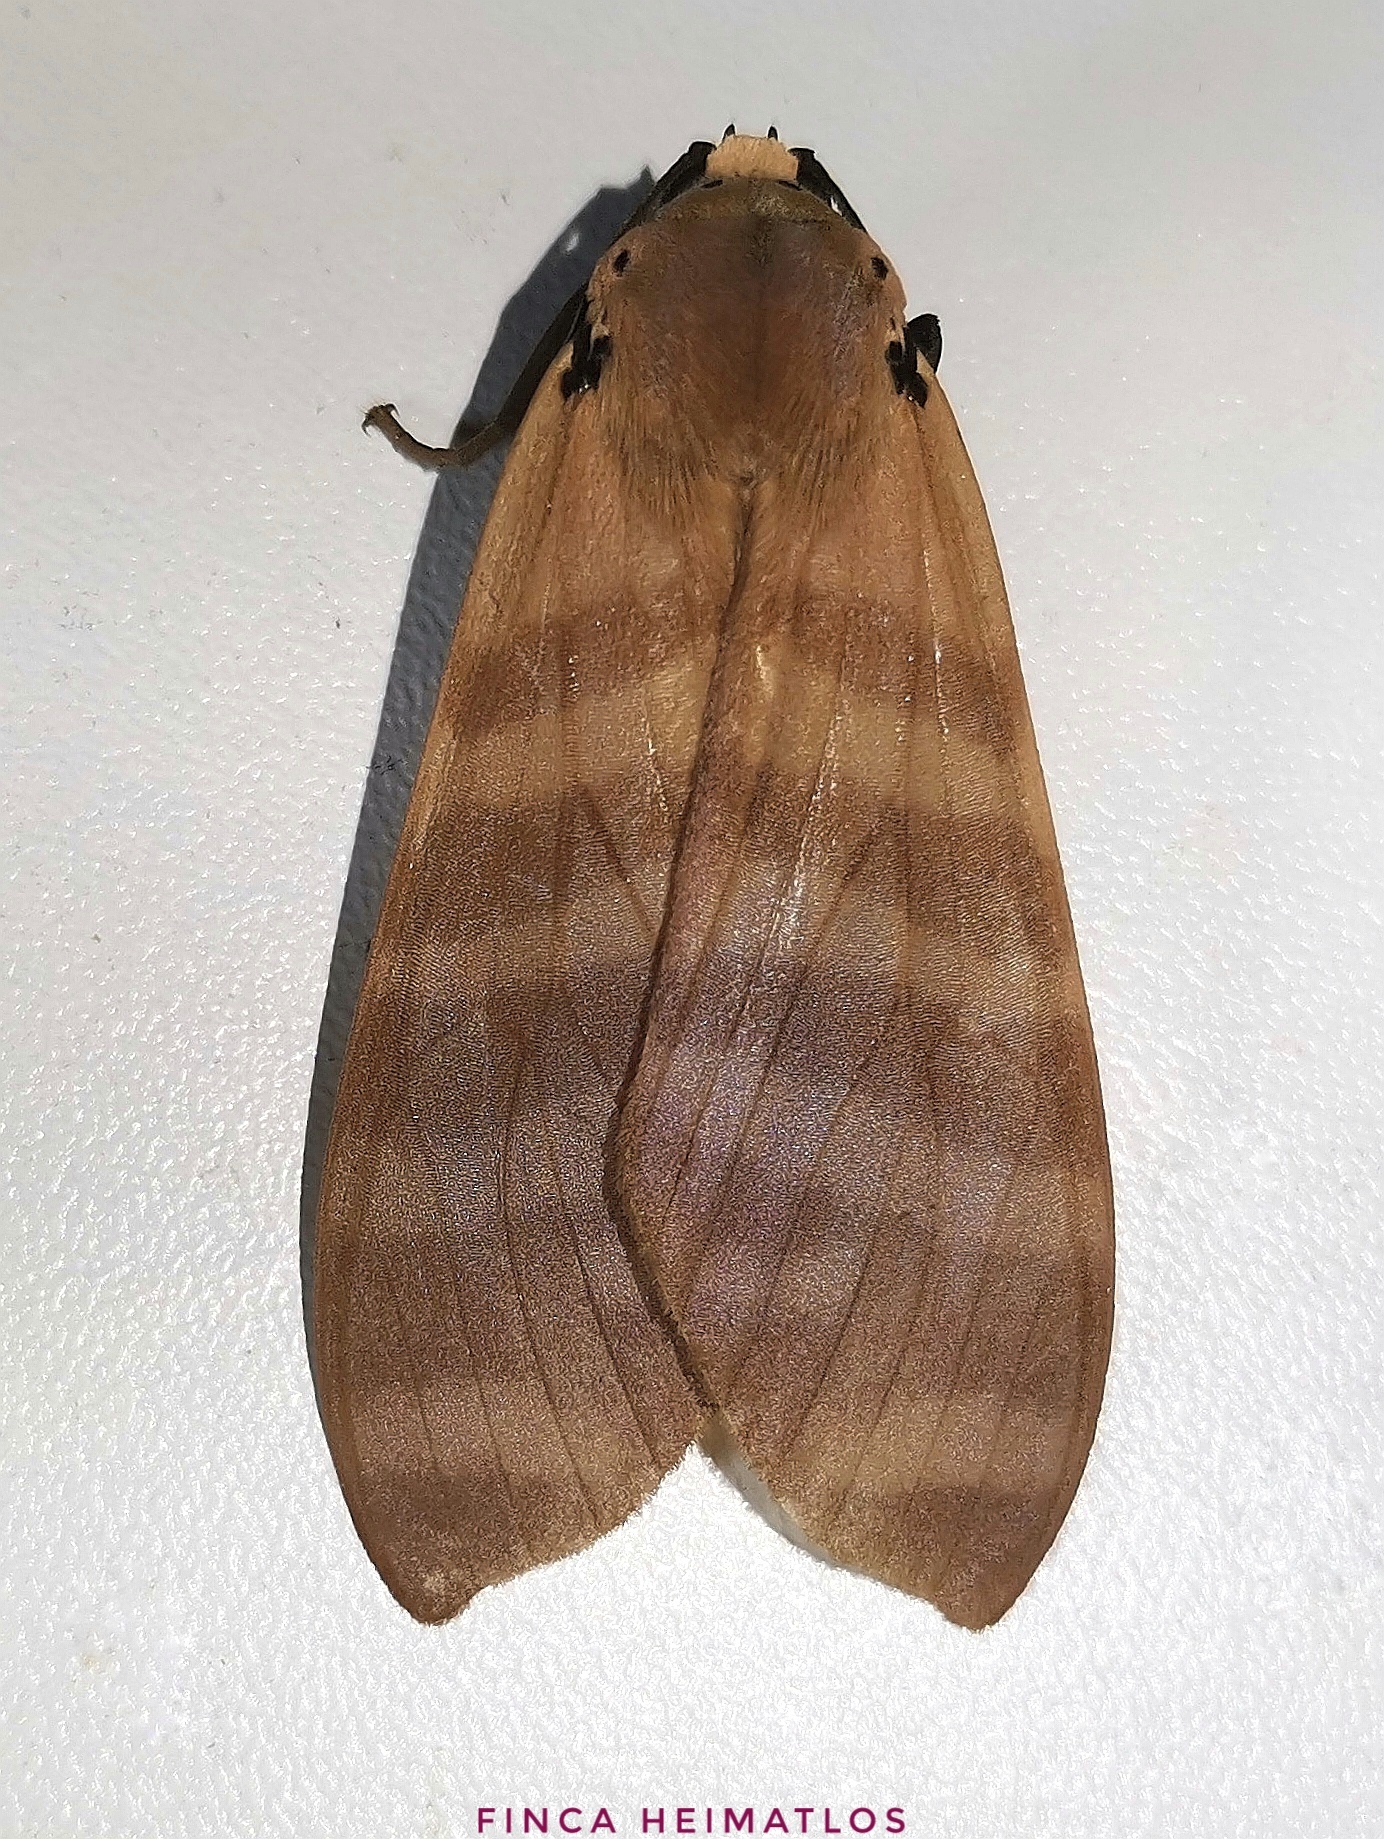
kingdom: Animalia
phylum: Arthropoda
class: Insecta
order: Lepidoptera
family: Erebidae
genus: Elysius
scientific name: Elysius superba
